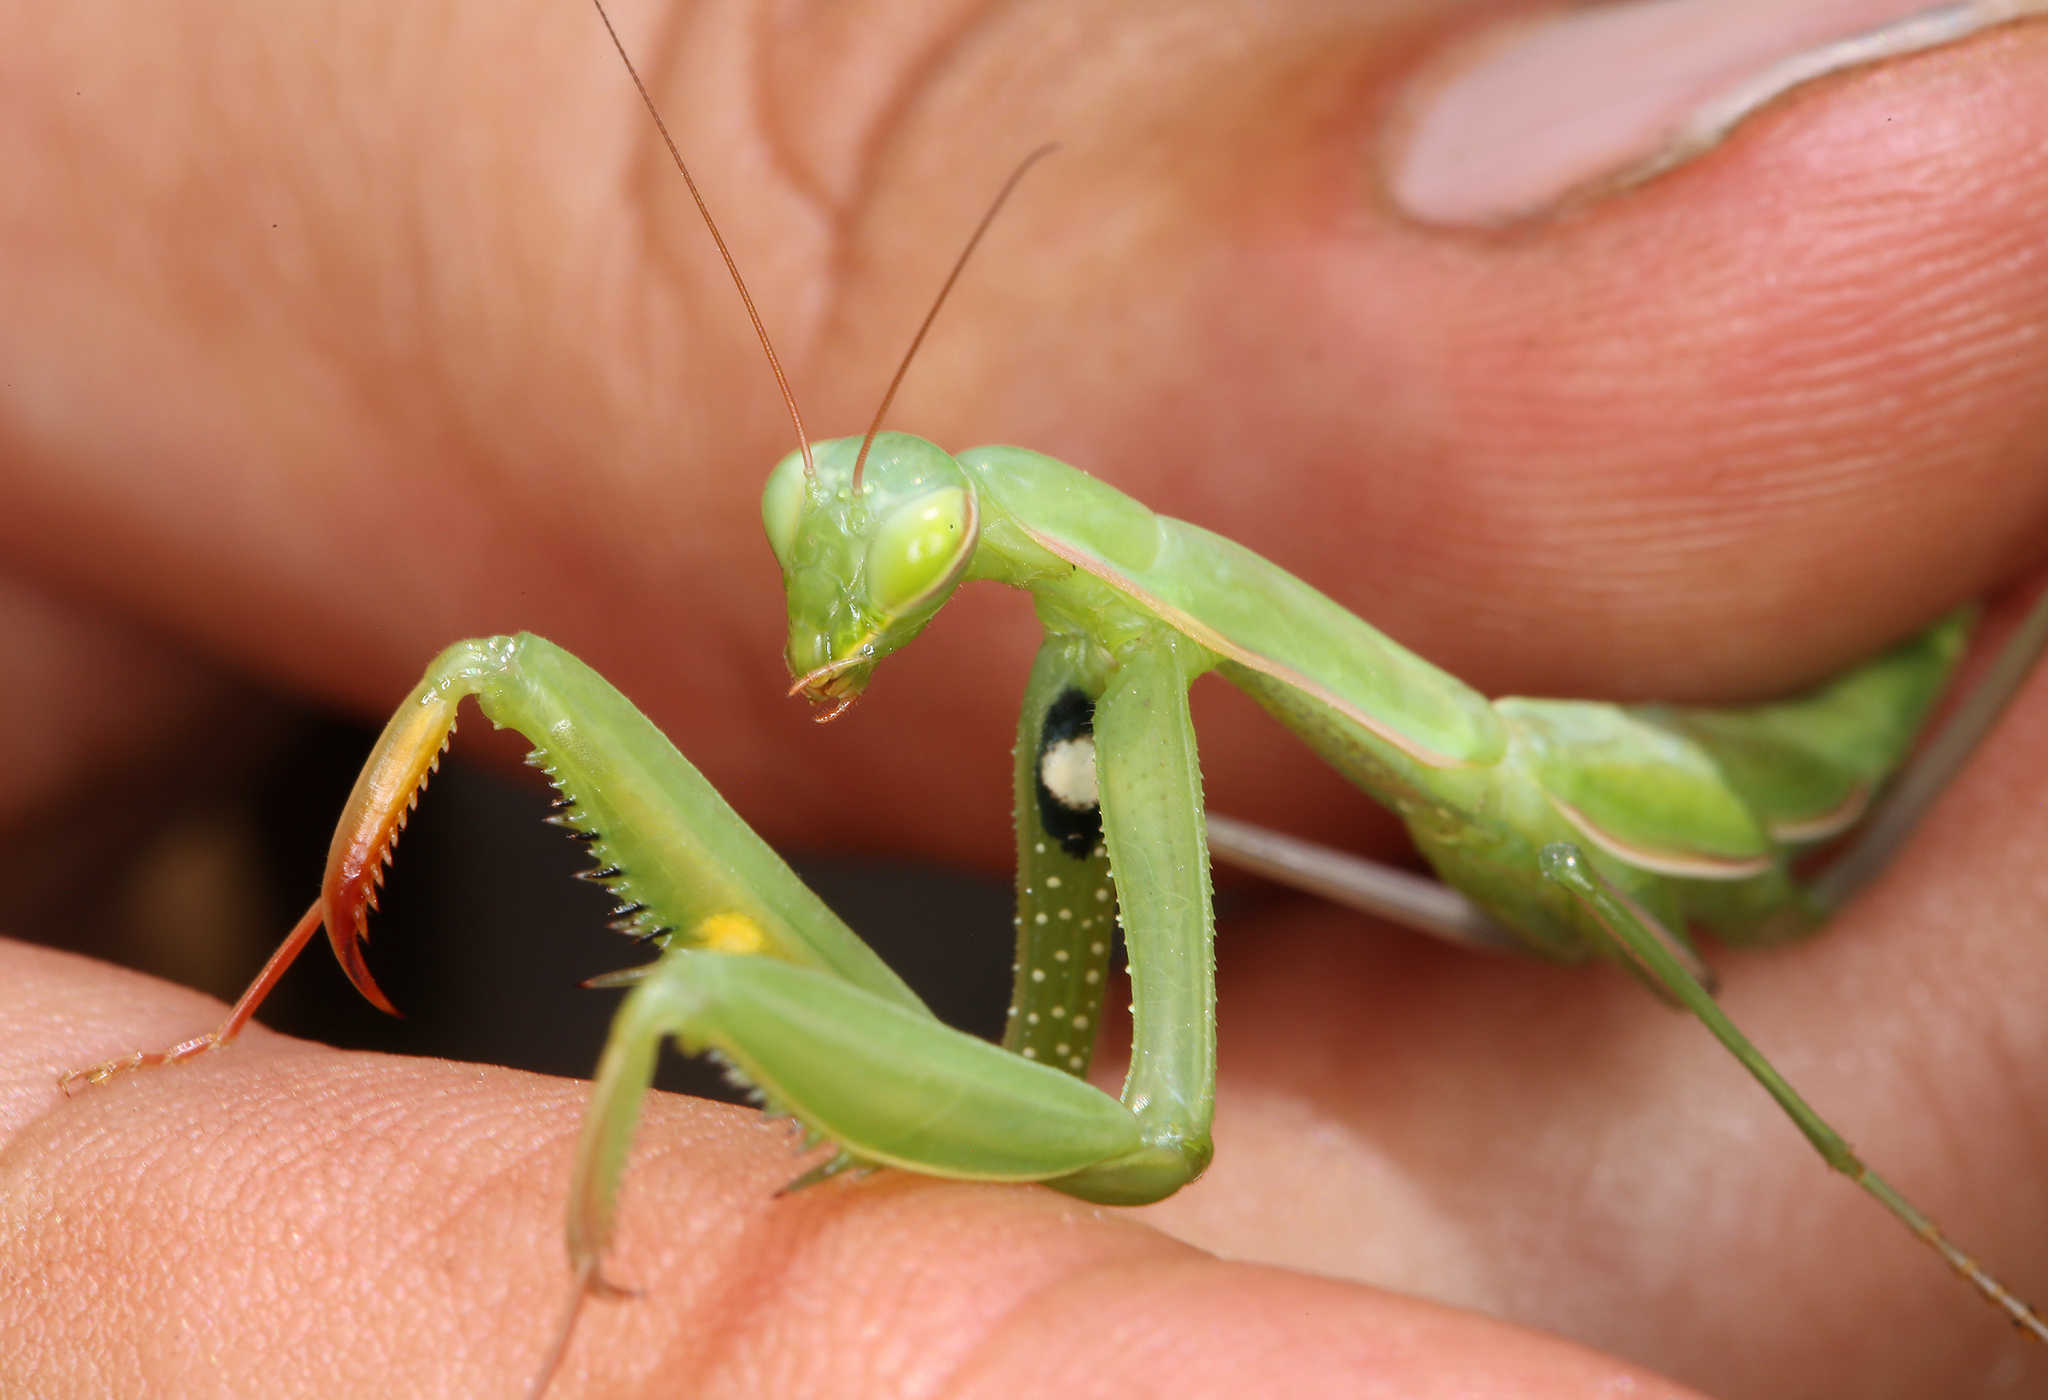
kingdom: Animalia
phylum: Arthropoda
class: Insecta
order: Mantodea
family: Mantidae
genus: Mantis
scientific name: Mantis religiosa
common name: Praying mantis
